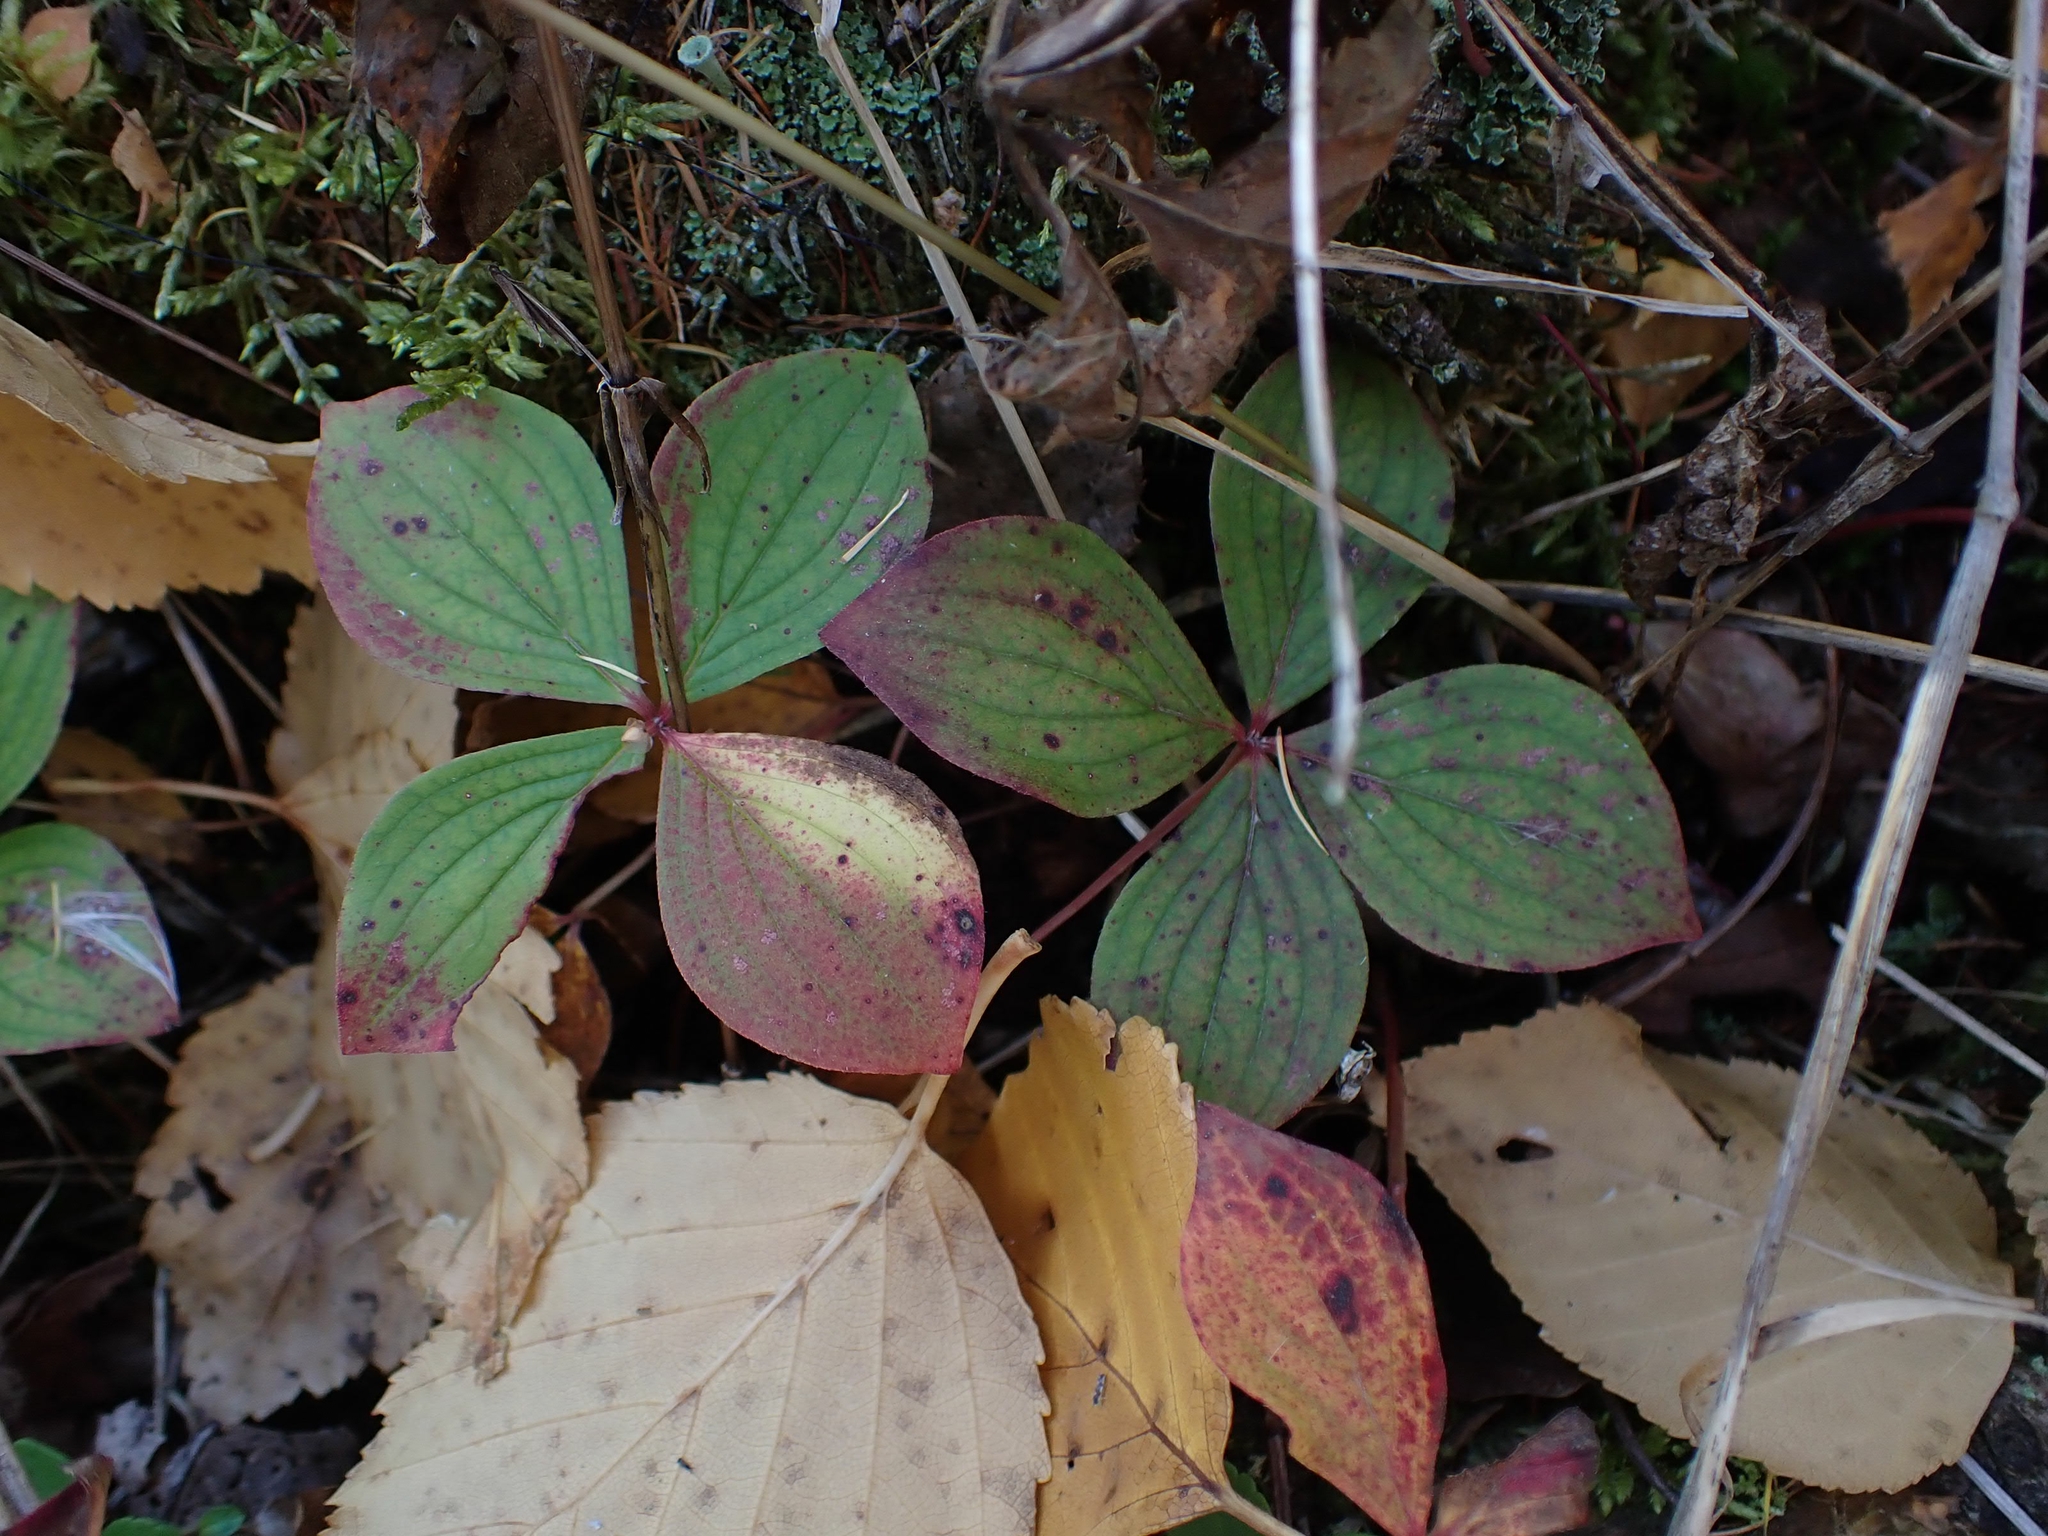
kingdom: Plantae
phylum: Tracheophyta
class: Magnoliopsida
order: Cornales
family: Cornaceae
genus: Cornus
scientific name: Cornus canadensis
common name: Creeping dogwood
